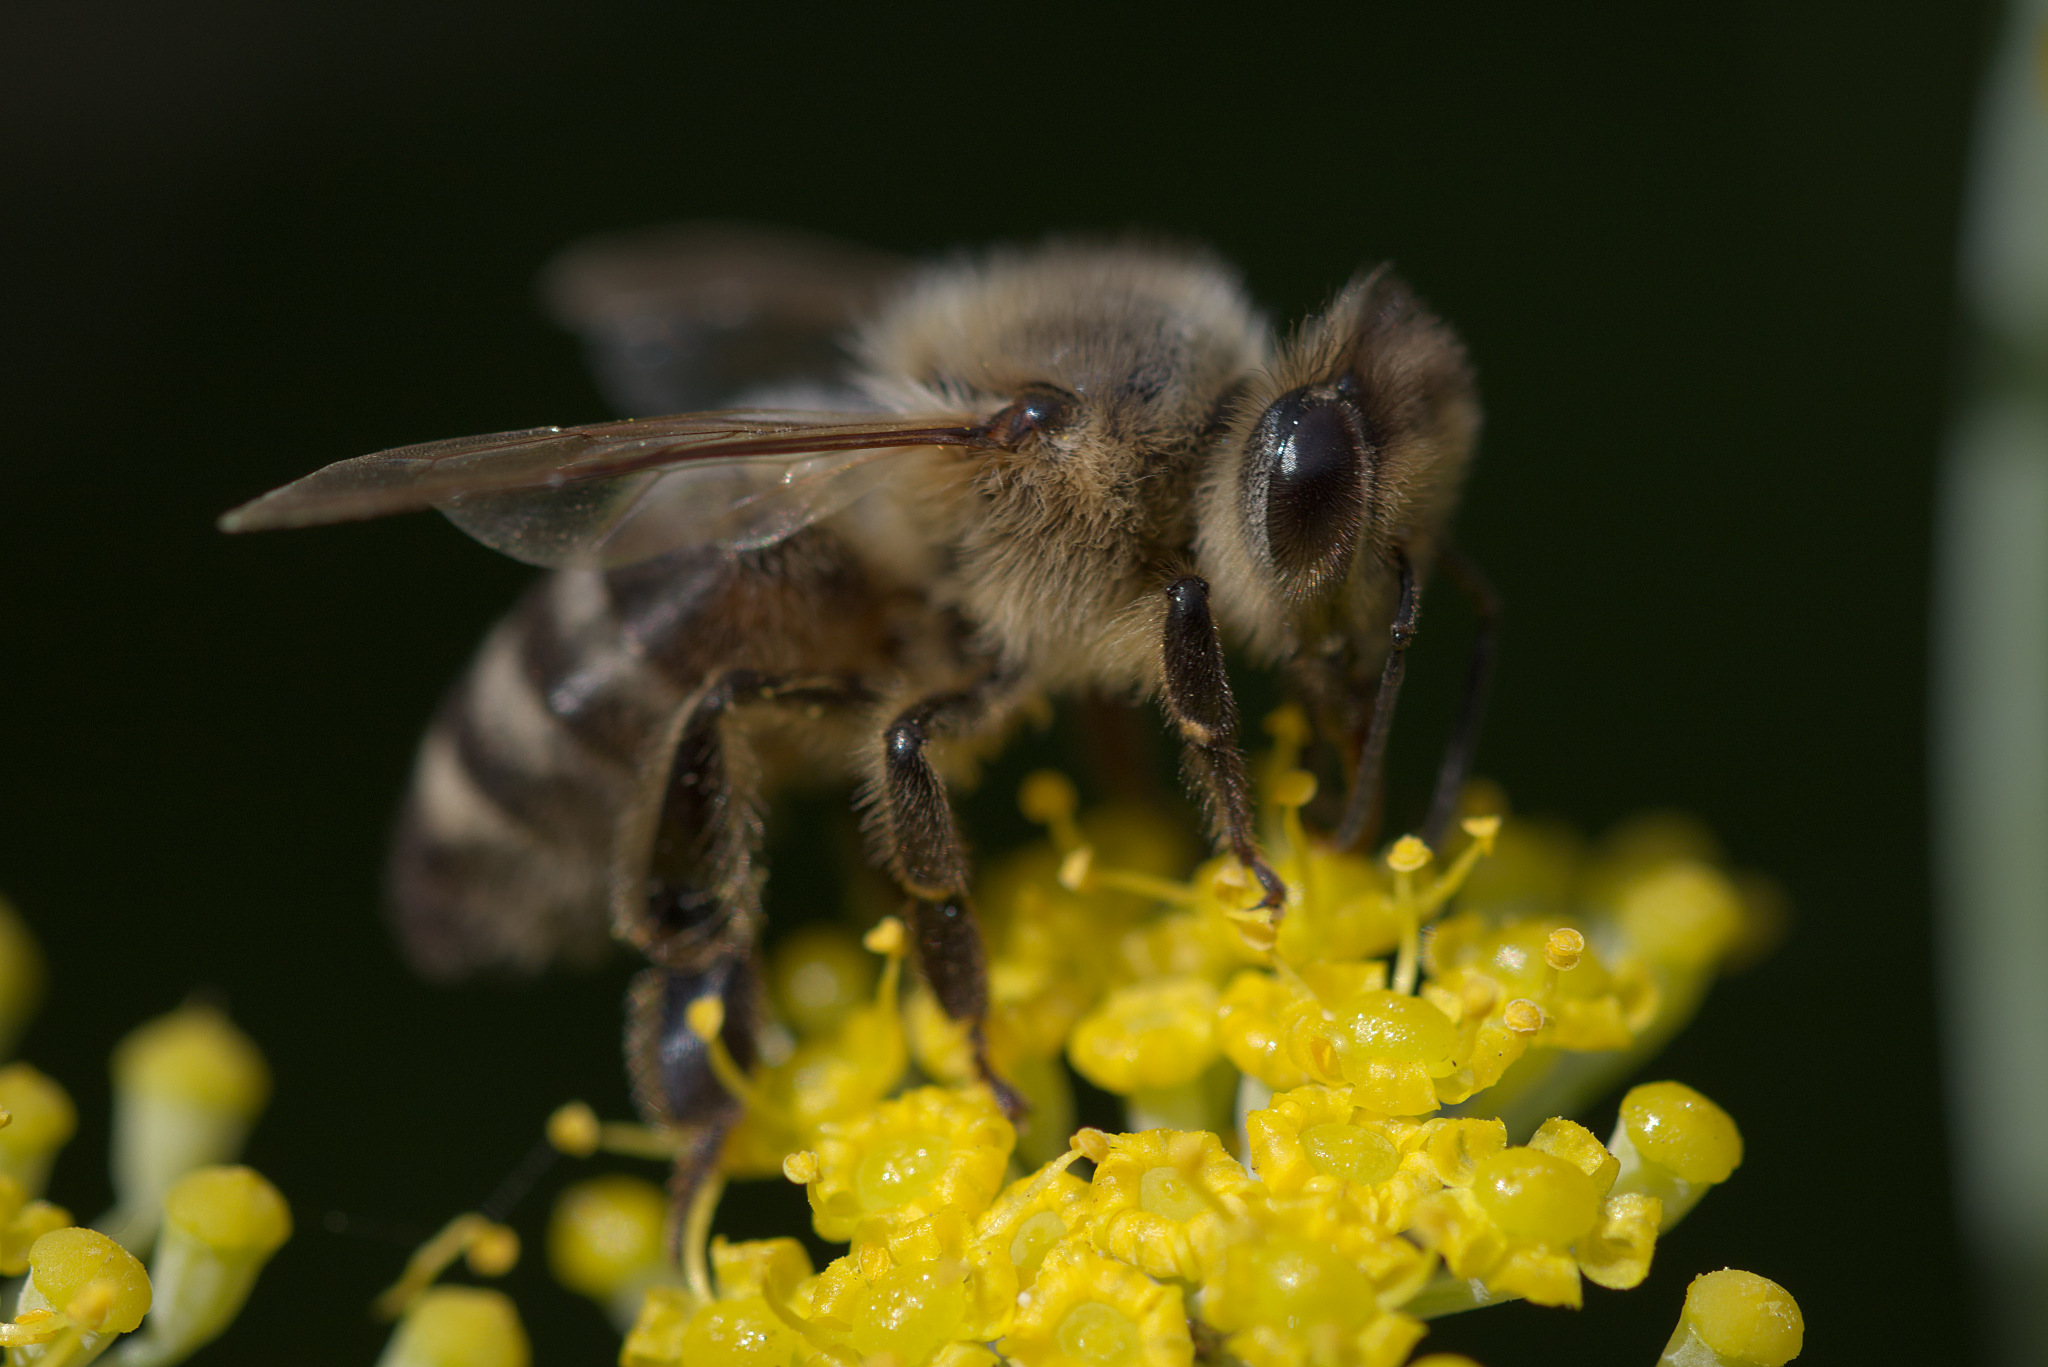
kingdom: Animalia
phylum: Arthropoda
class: Insecta
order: Hymenoptera
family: Apidae
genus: Apis
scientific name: Apis mellifera
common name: Honey bee
